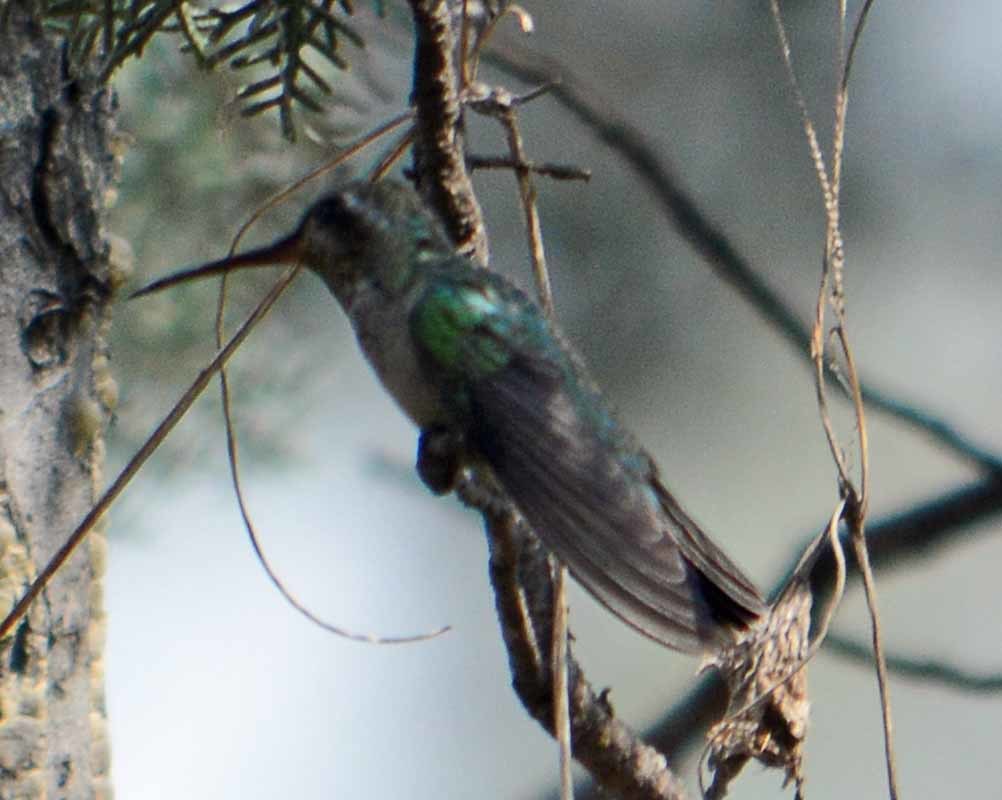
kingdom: Animalia
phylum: Chordata
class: Aves
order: Apodiformes
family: Trochilidae
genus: Cynanthus
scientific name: Cynanthus latirostris
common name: Broad-billed hummingbird
